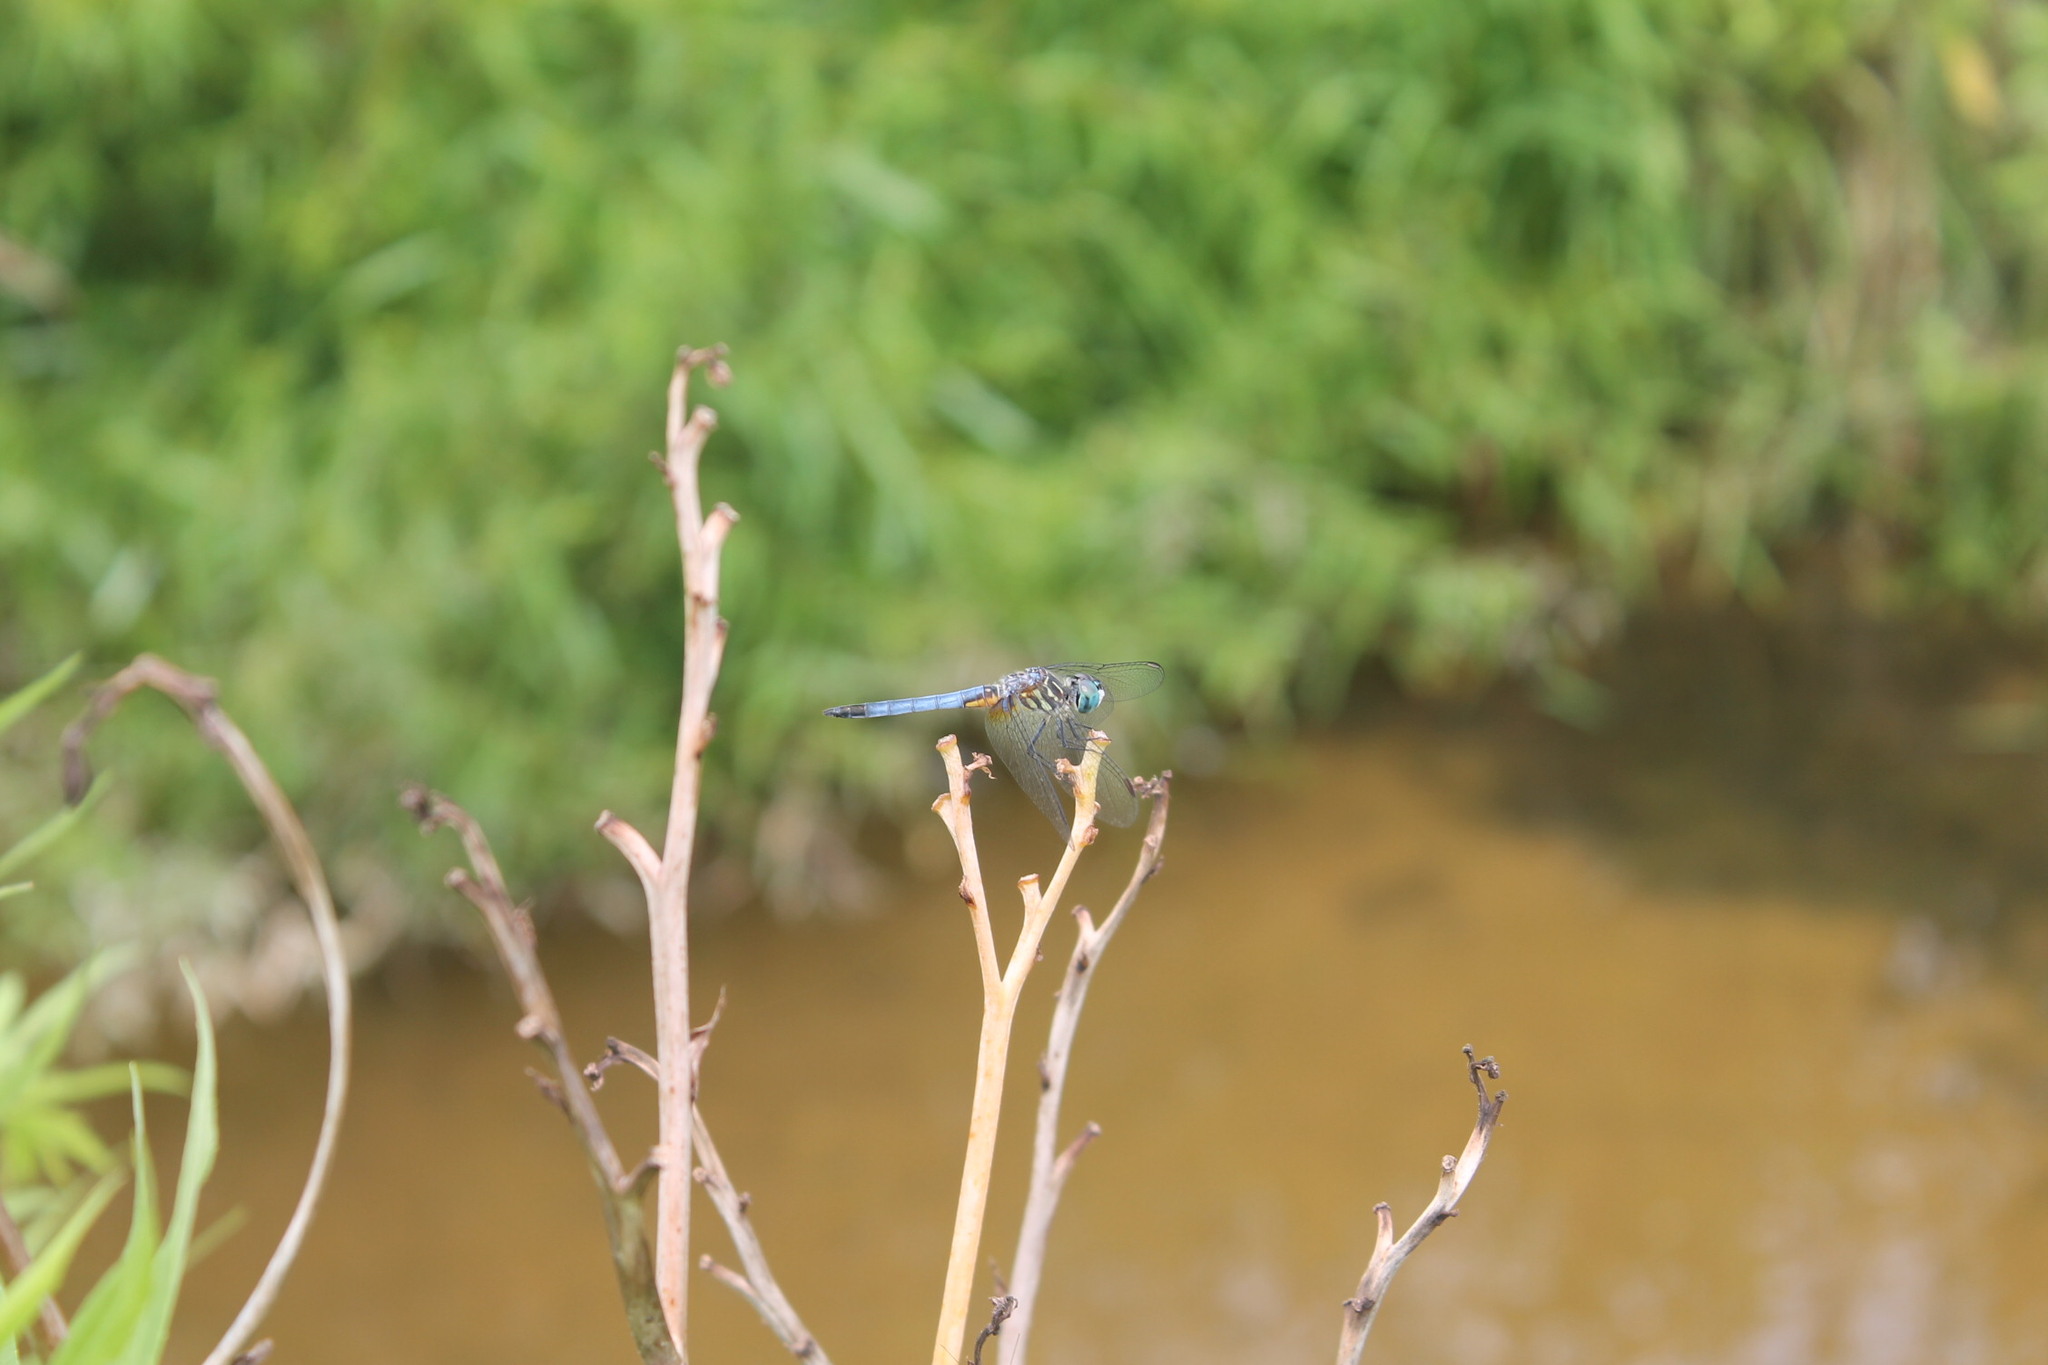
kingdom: Animalia
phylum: Arthropoda
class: Insecta
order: Odonata
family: Libellulidae
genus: Pachydiplax
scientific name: Pachydiplax longipennis
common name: Blue dasher
